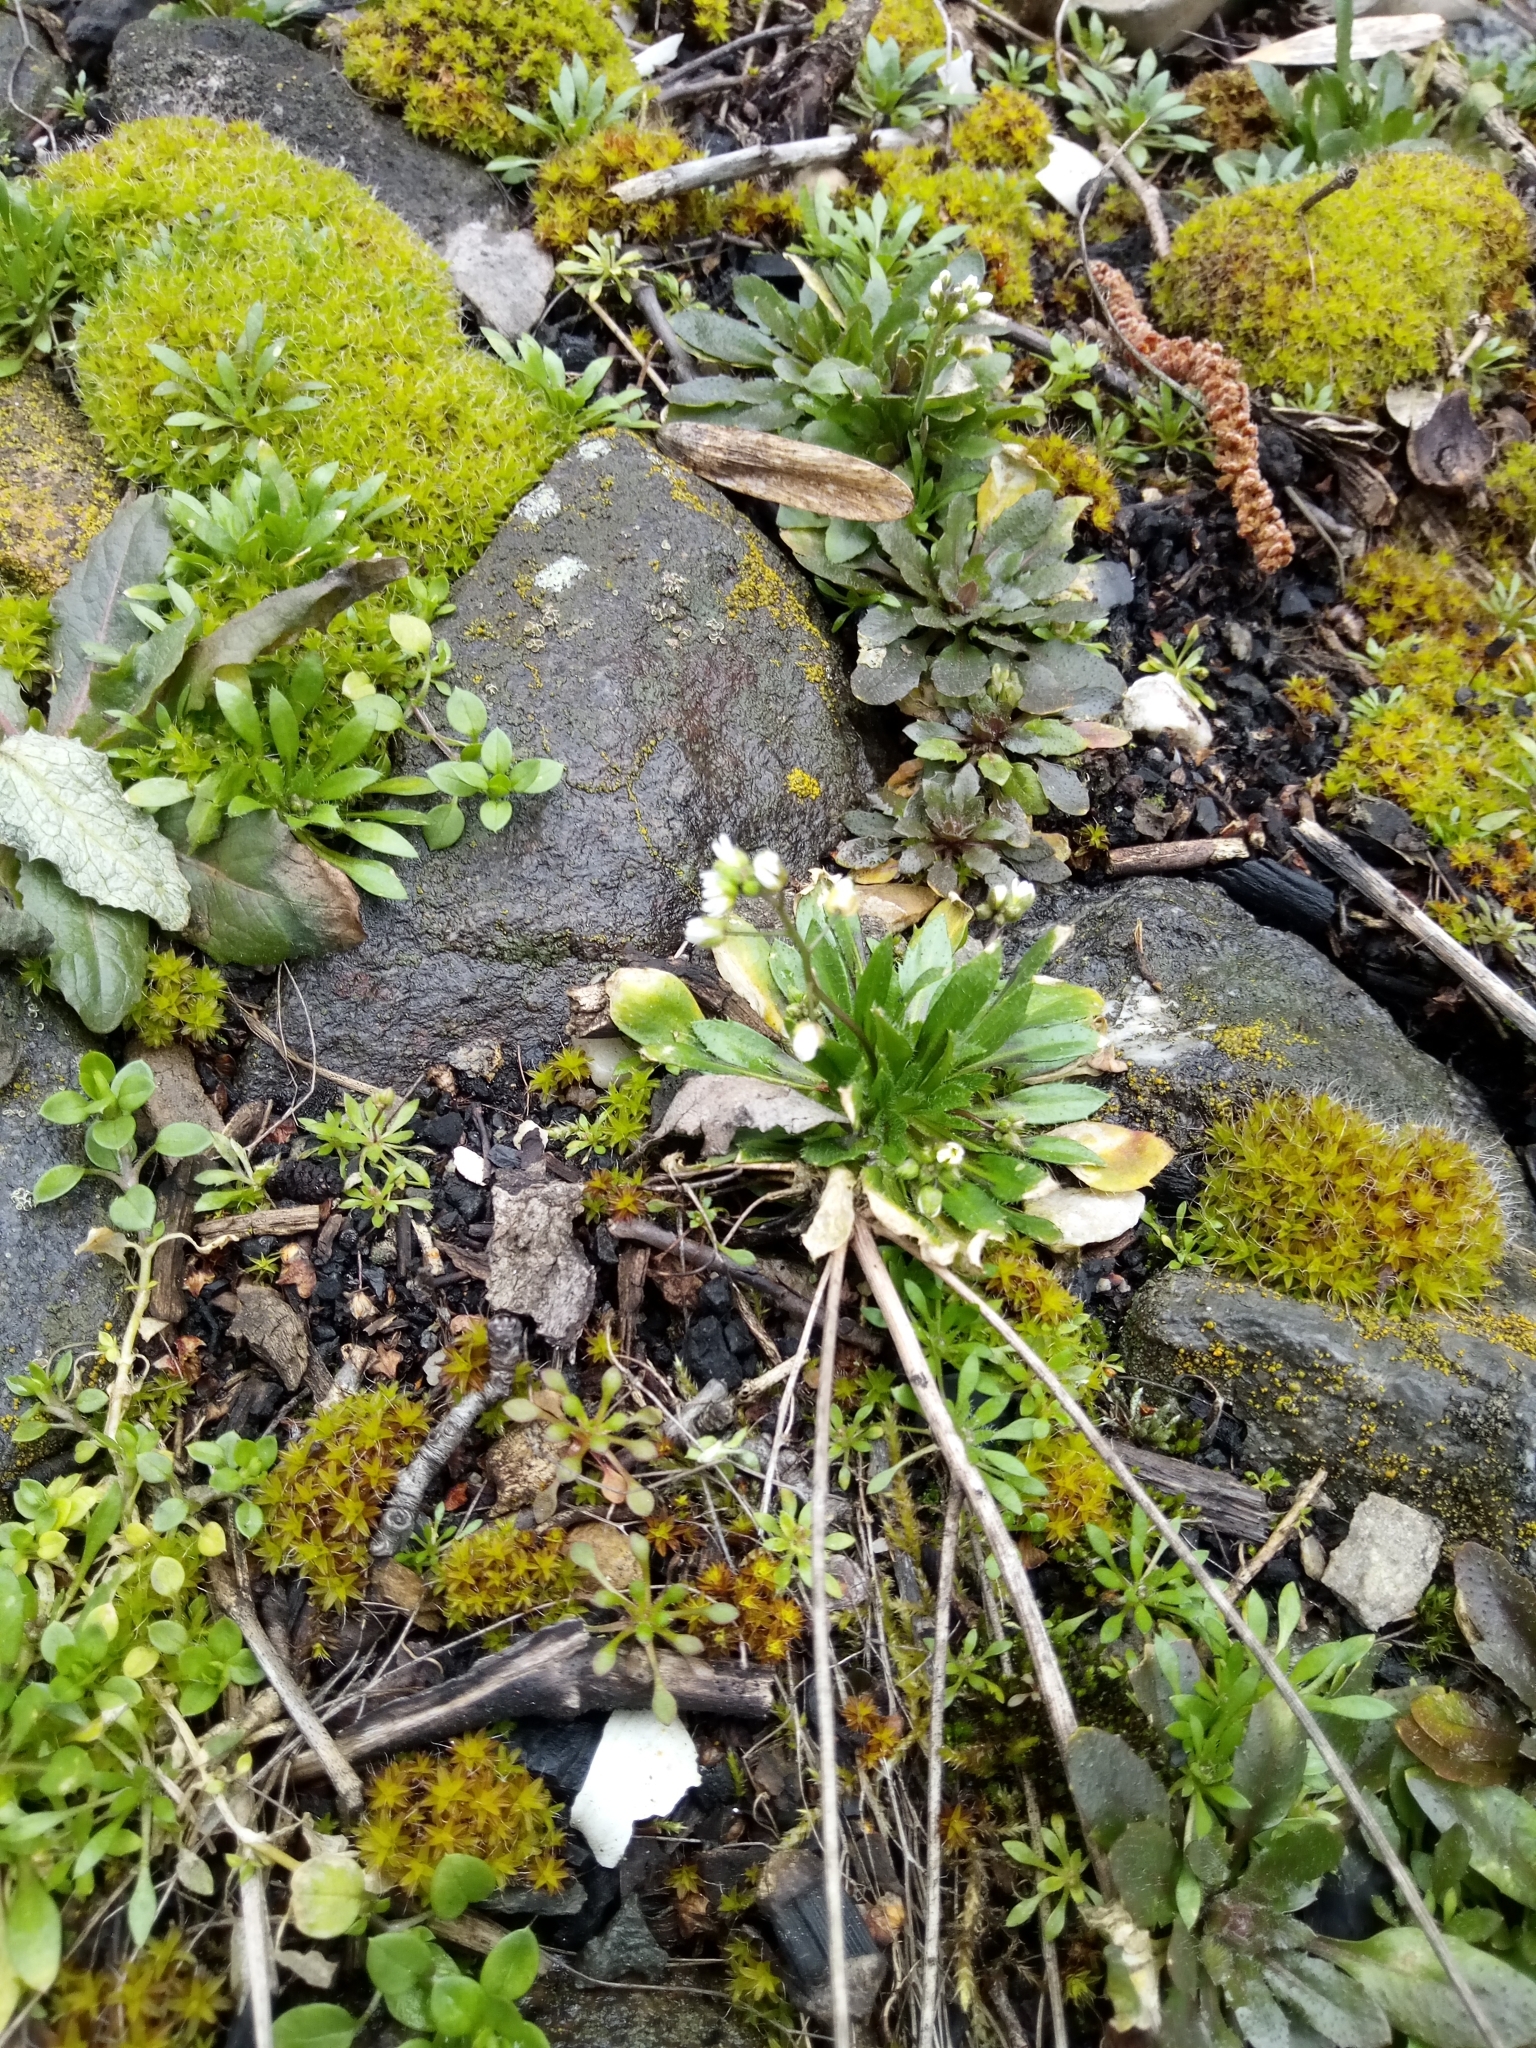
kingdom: Plantae
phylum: Tracheophyta
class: Magnoliopsida
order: Brassicales
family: Brassicaceae
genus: Draba
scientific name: Draba verna
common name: Spring draba
